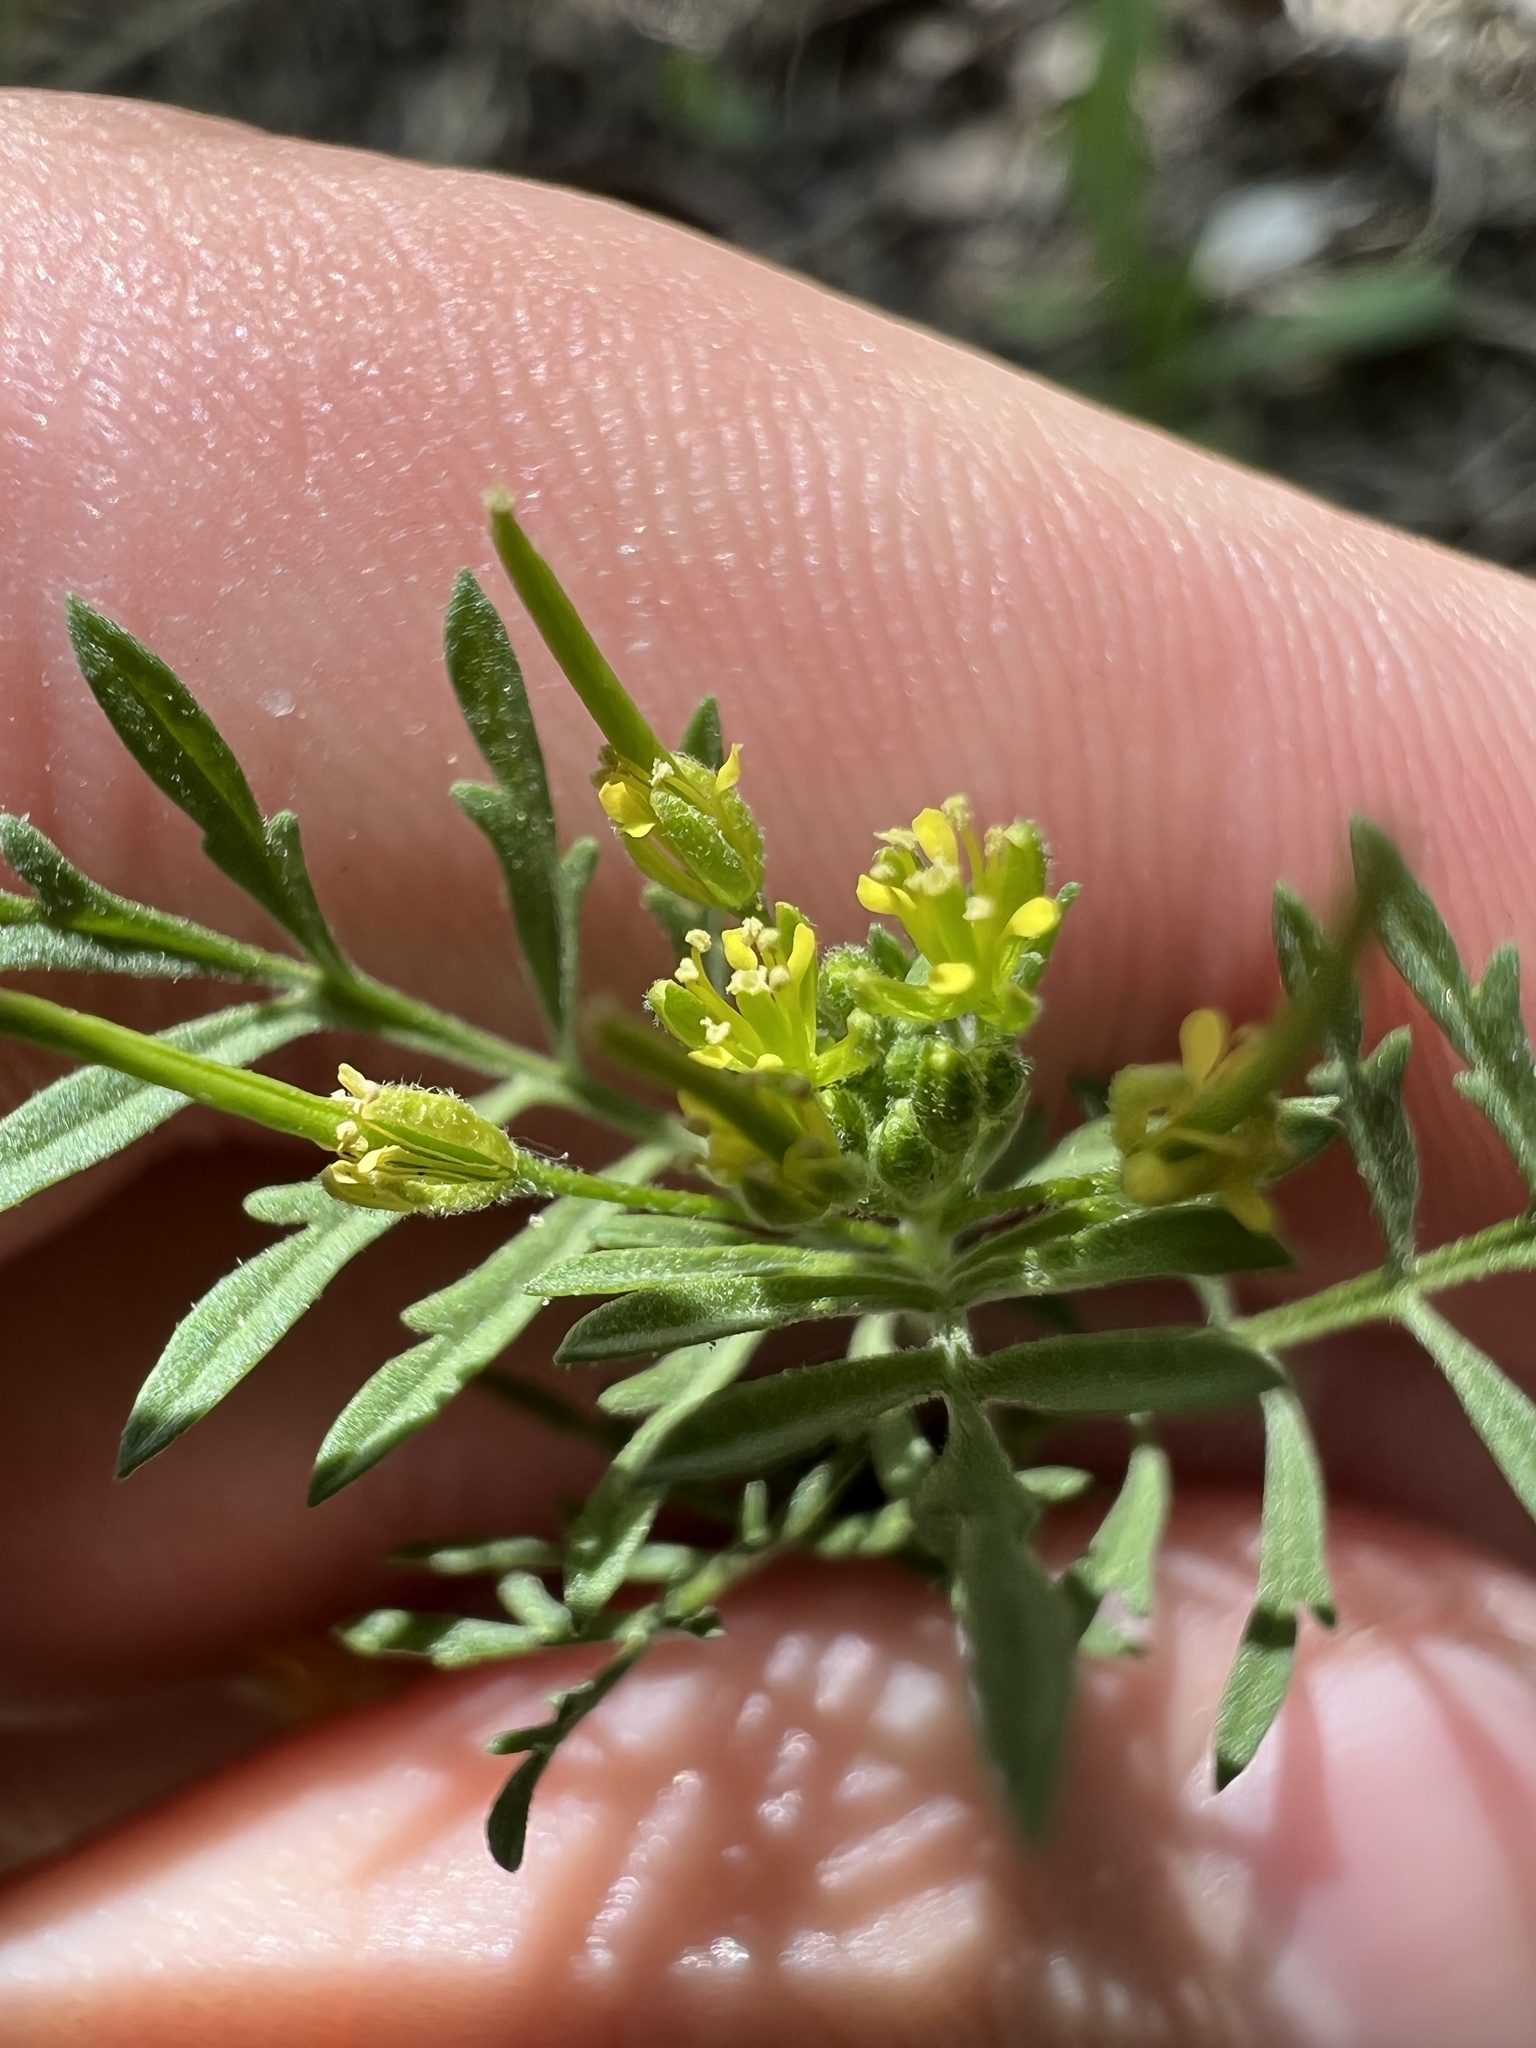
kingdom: Plantae
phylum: Tracheophyta
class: Magnoliopsida
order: Brassicales
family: Brassicaceae
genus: Descurainia
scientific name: Descurainia sophia
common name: Flixweed
